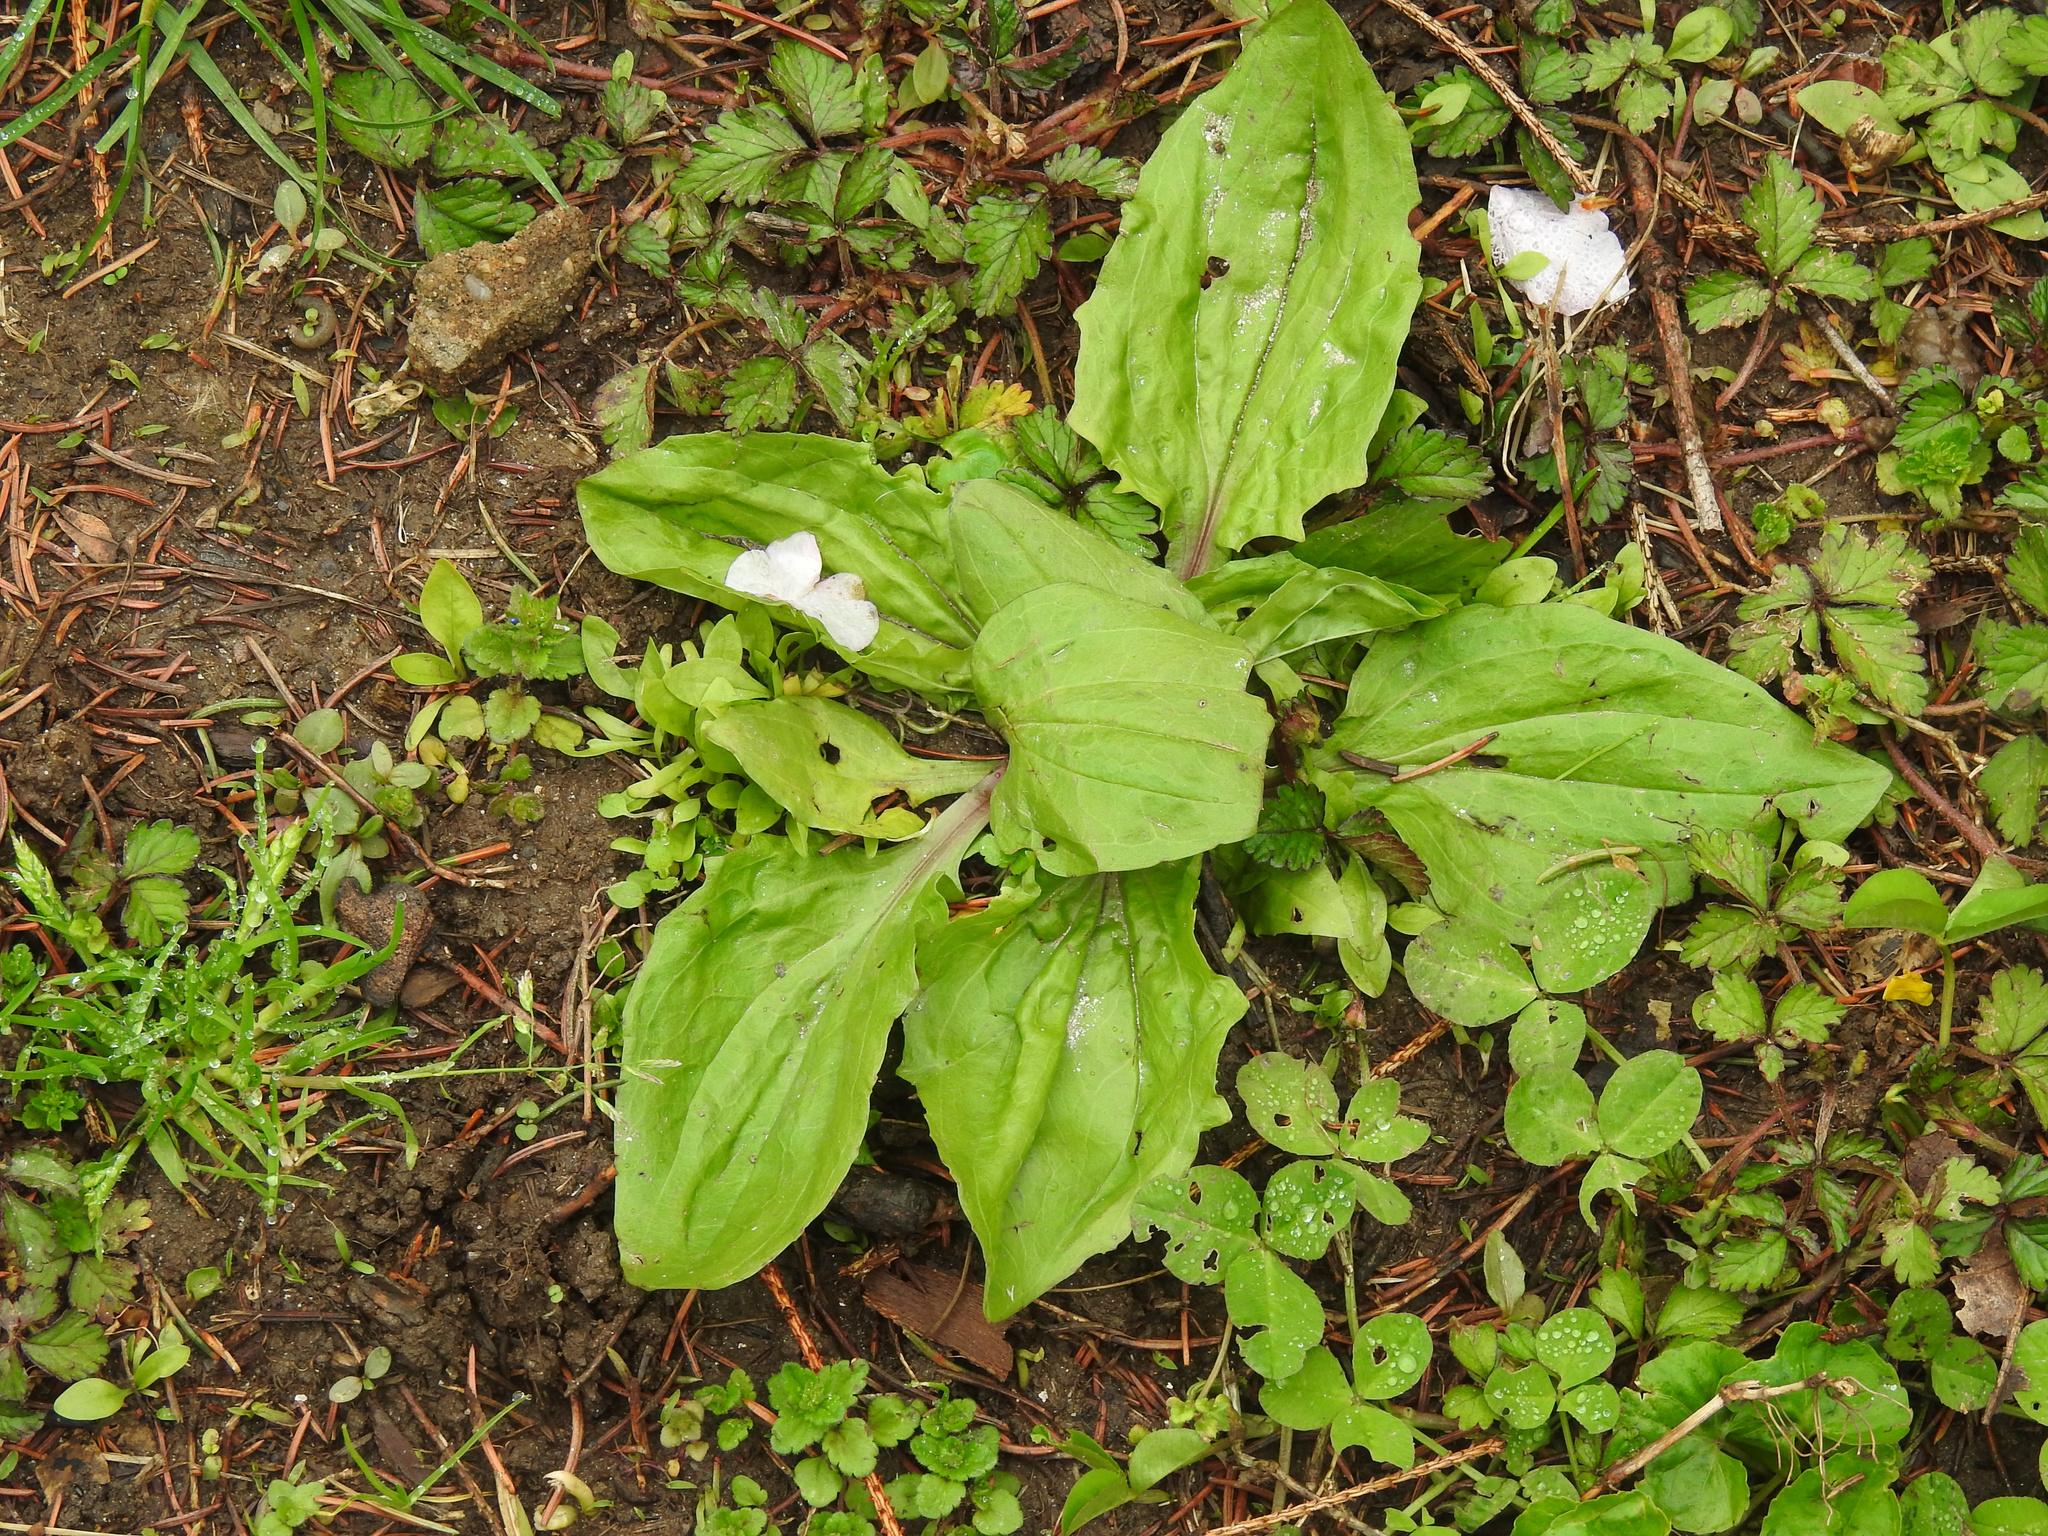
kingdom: Plantae
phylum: Tracheophyta
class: Magnoliopsida
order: Lamiales
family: Plantaginaceae
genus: Plantago
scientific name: Plantago rugelii
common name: American plantain
